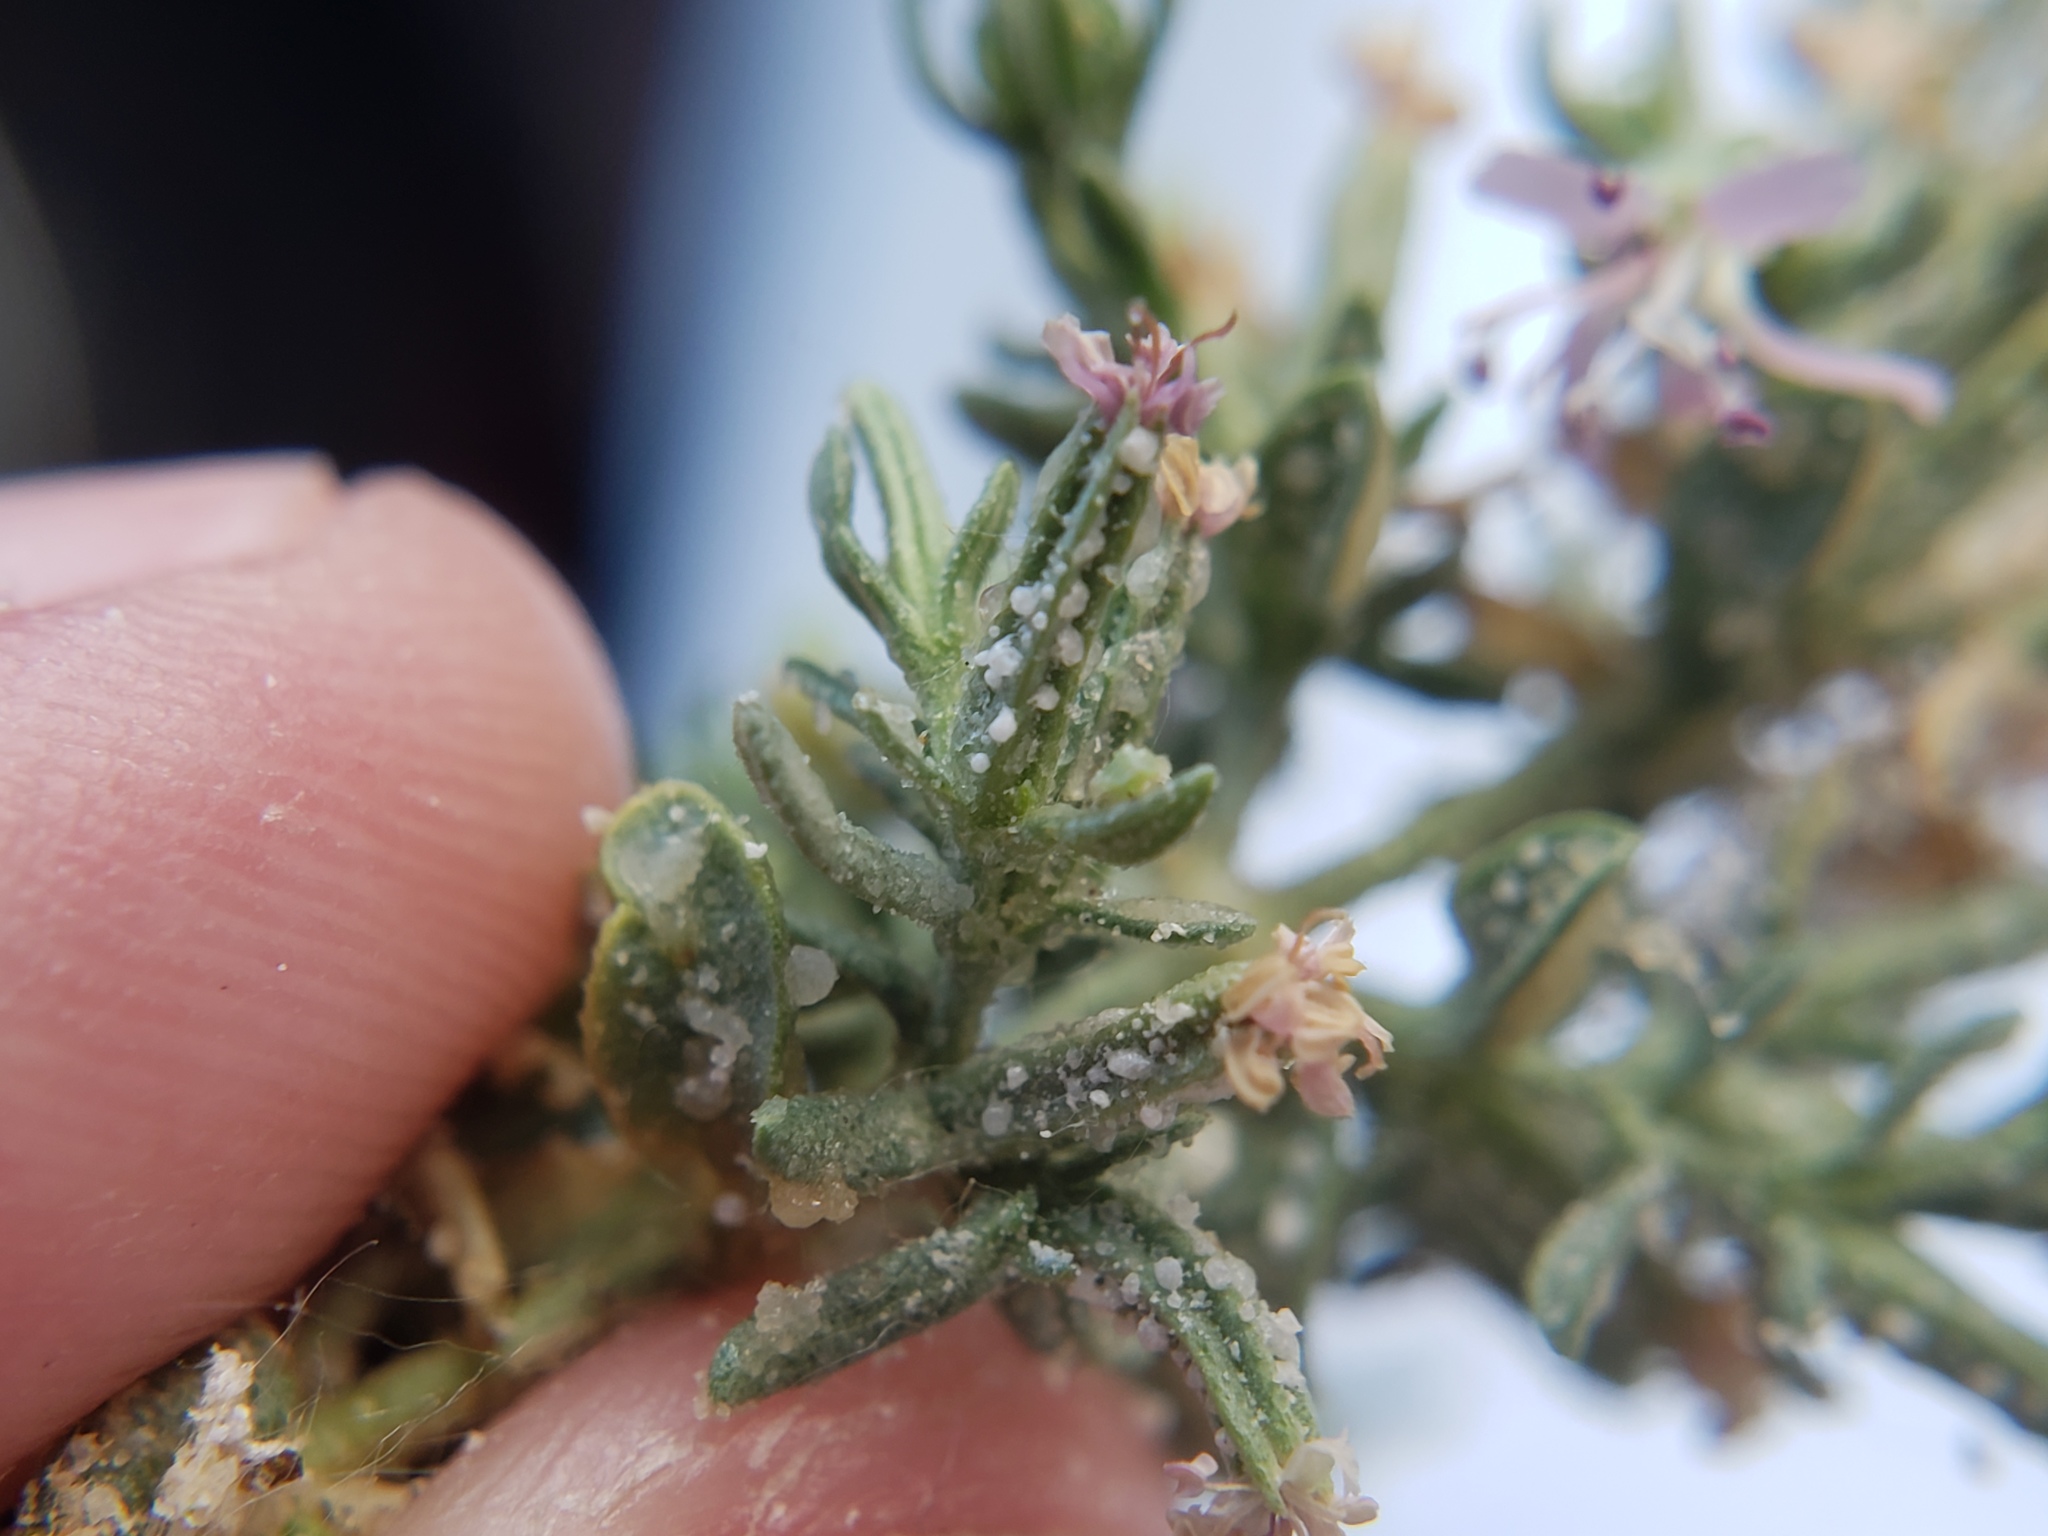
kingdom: Plantae
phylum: Tracheophyta
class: Magnoliopsida
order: Caryophyllales
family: Frankeniaceae
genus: Frankenia
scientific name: Frankenia salina
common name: Alkali seaheath
